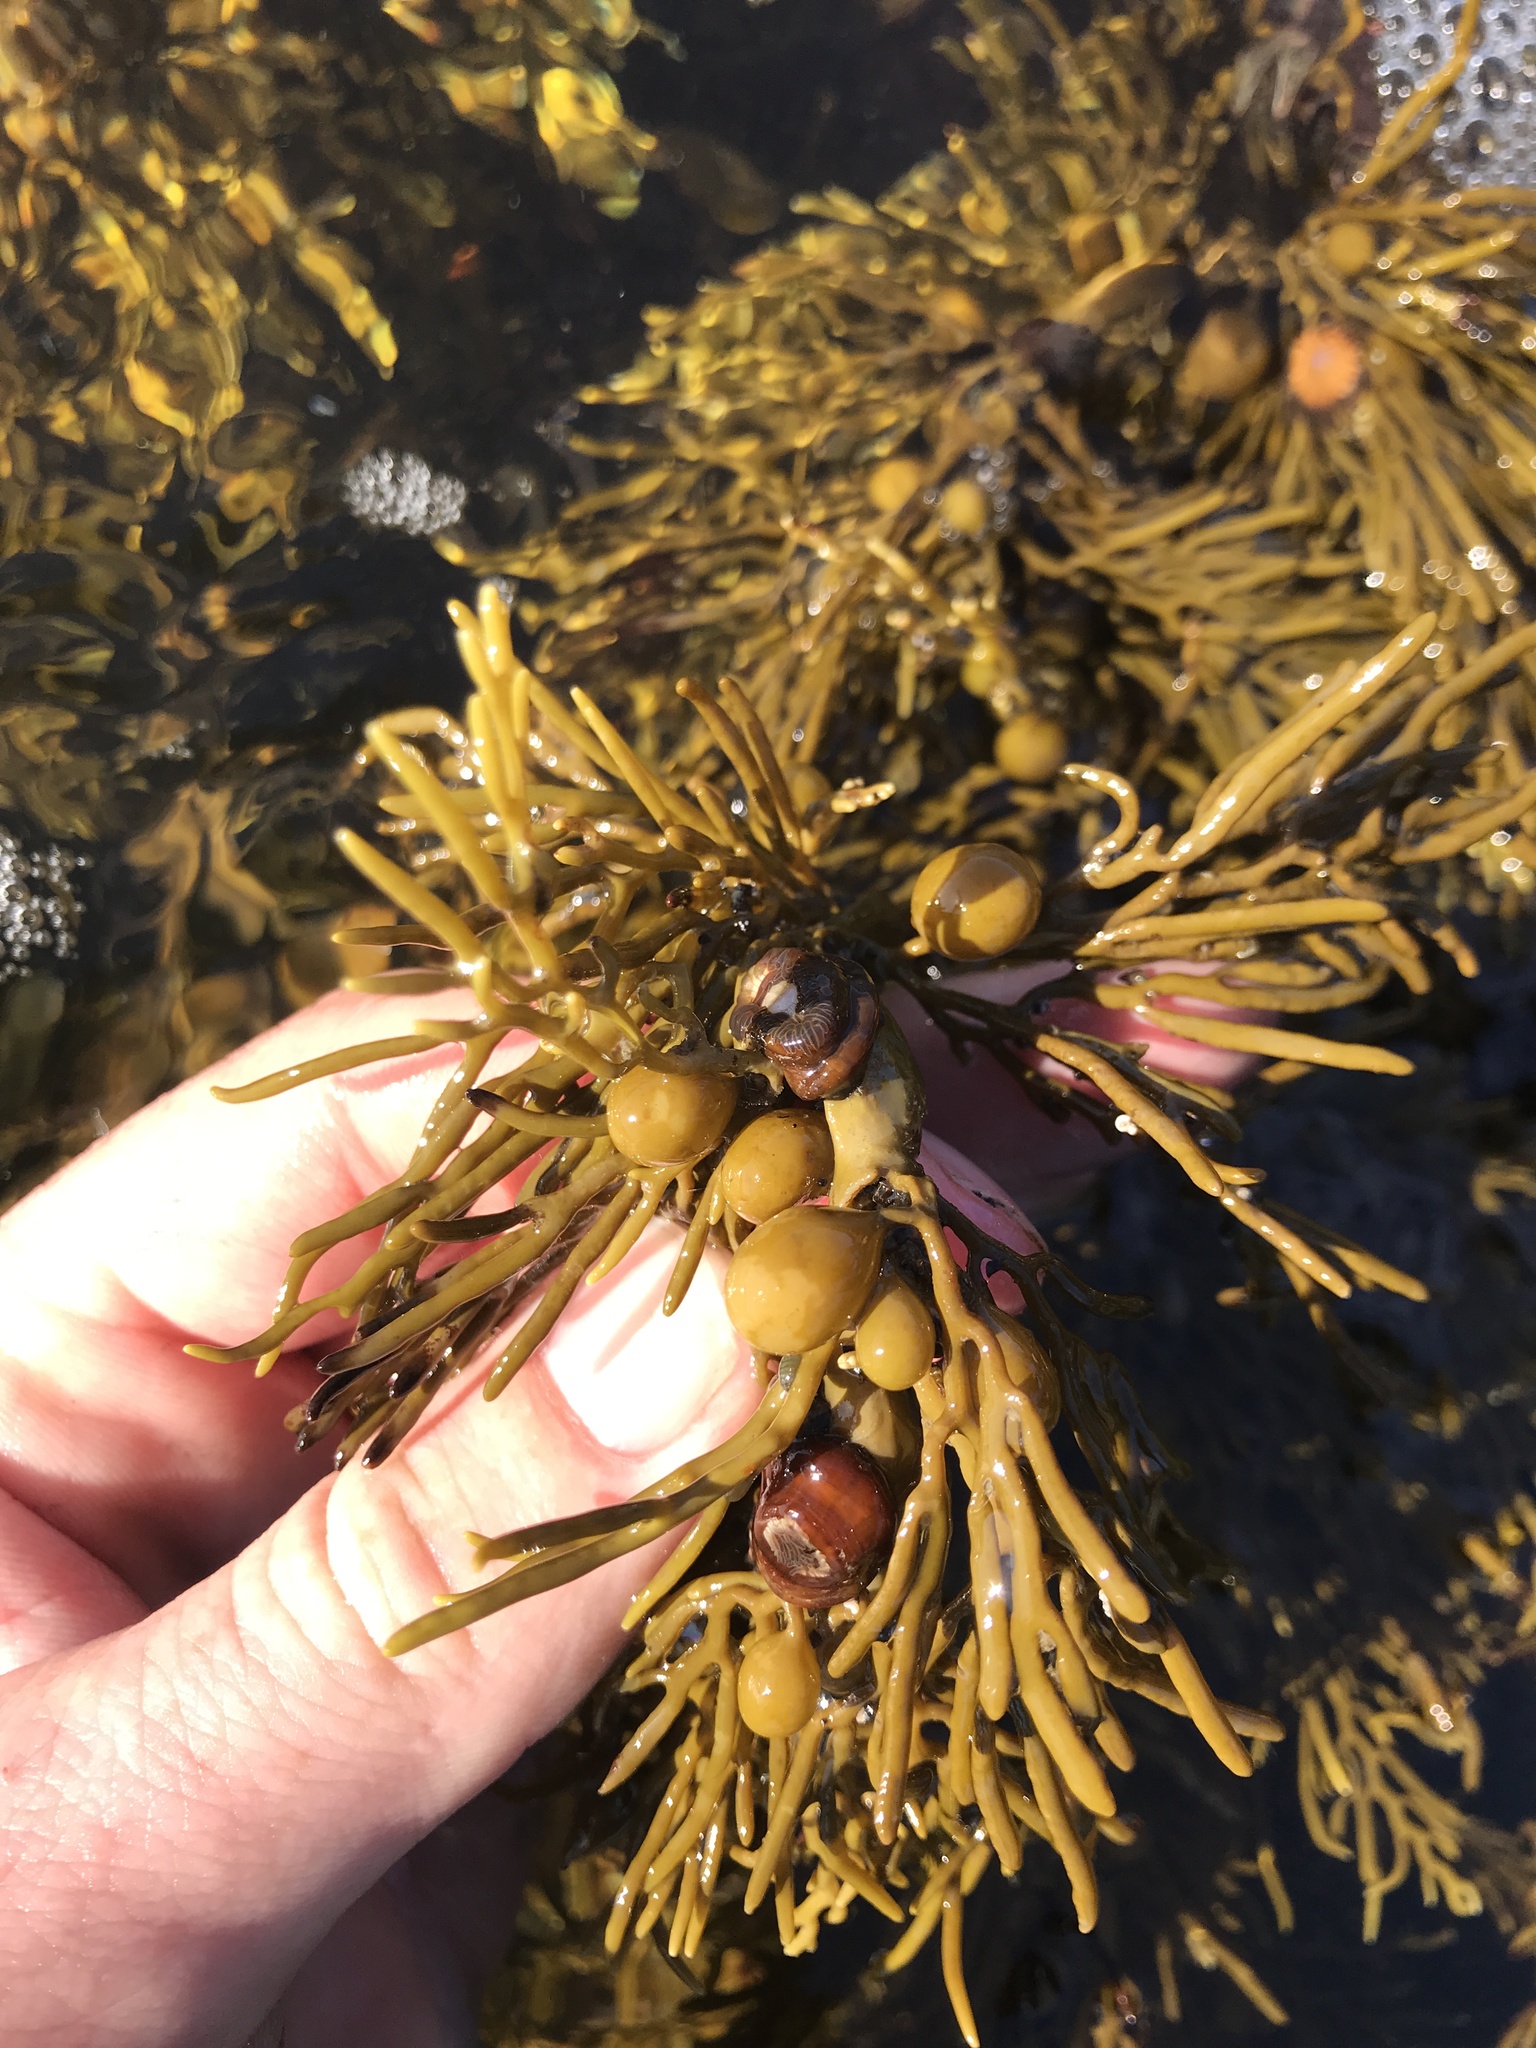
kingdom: Chromista
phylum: Ochrophyta
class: Phaeophyceae
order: Fucales
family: Sargassaceae
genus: Cystophora
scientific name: Cystophora retroflexa
